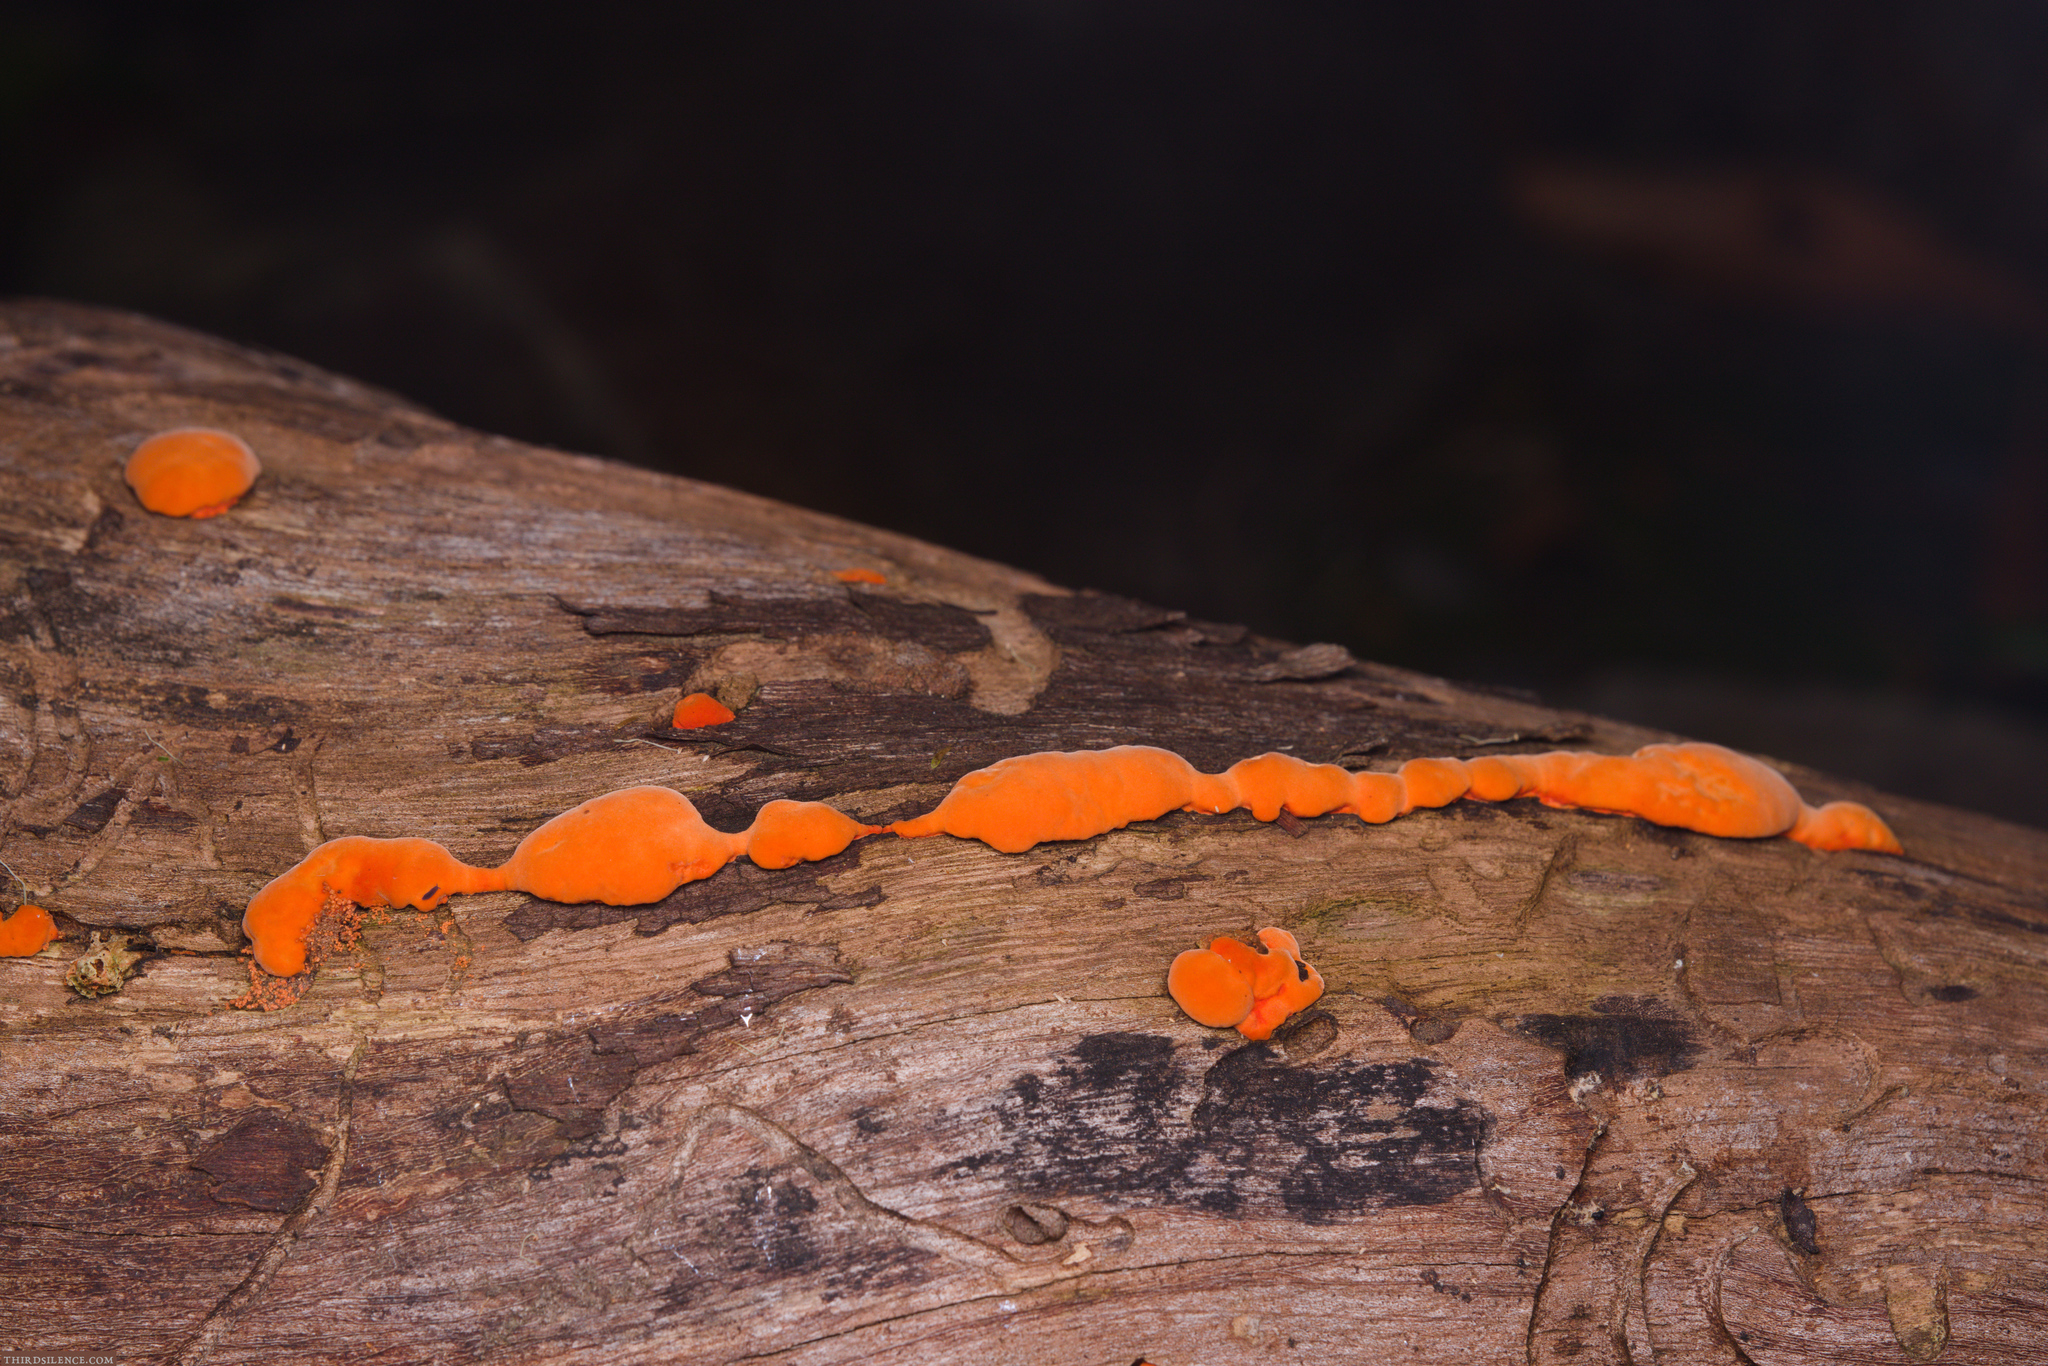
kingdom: Fungi
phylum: Basidiomycota
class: Agaricomycetes
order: Polyporales
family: Polyporaceae
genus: Trametes
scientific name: Trametes coccinea
